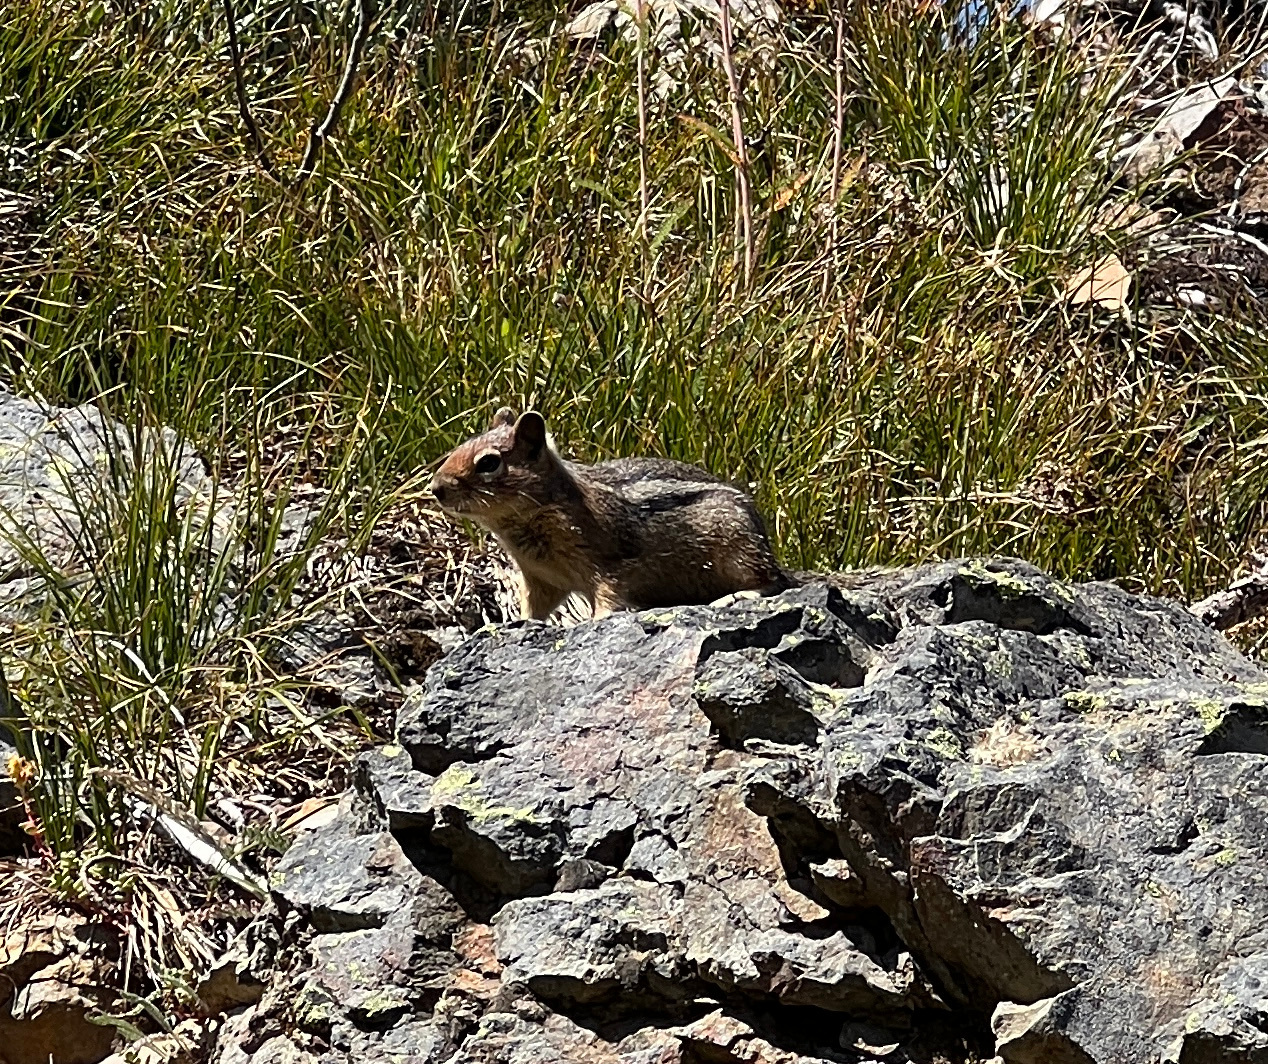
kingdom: Animalia
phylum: Chordata
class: Mammalia
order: Rodentia
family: Sciuridae
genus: Callospermophilus
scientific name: Callospermophilus saturatus
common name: Cascade golden-mantled ground squirrel
